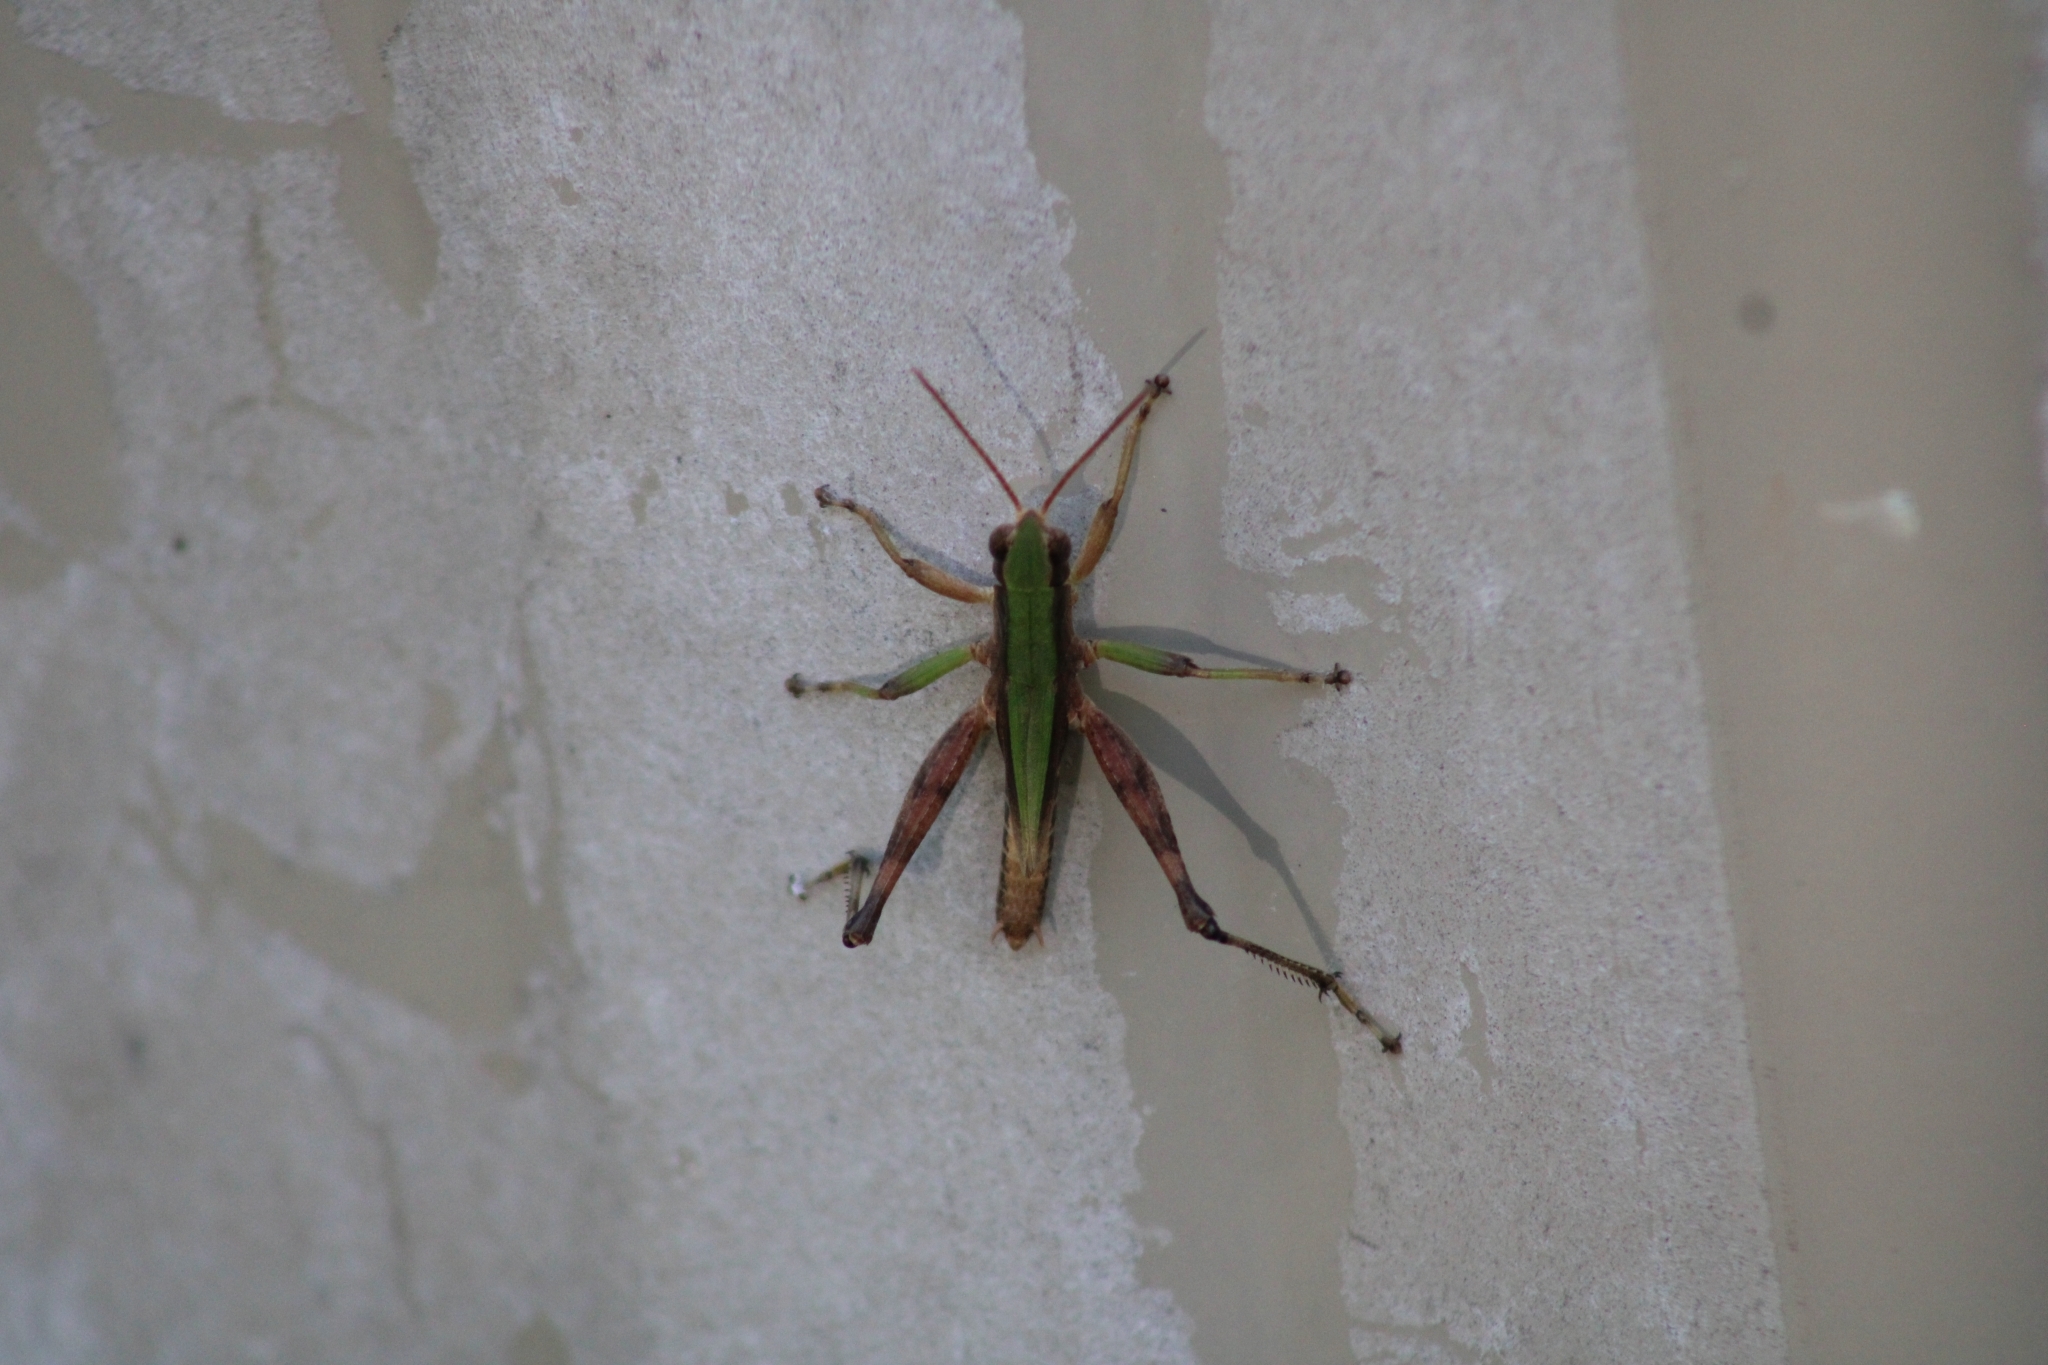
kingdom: Animalia
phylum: Arthropoda
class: Insecta
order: Orthoptera
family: Acrididae
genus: Dichromorpha
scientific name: Dichromorpha viridis
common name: Short-winged green grasshopper
